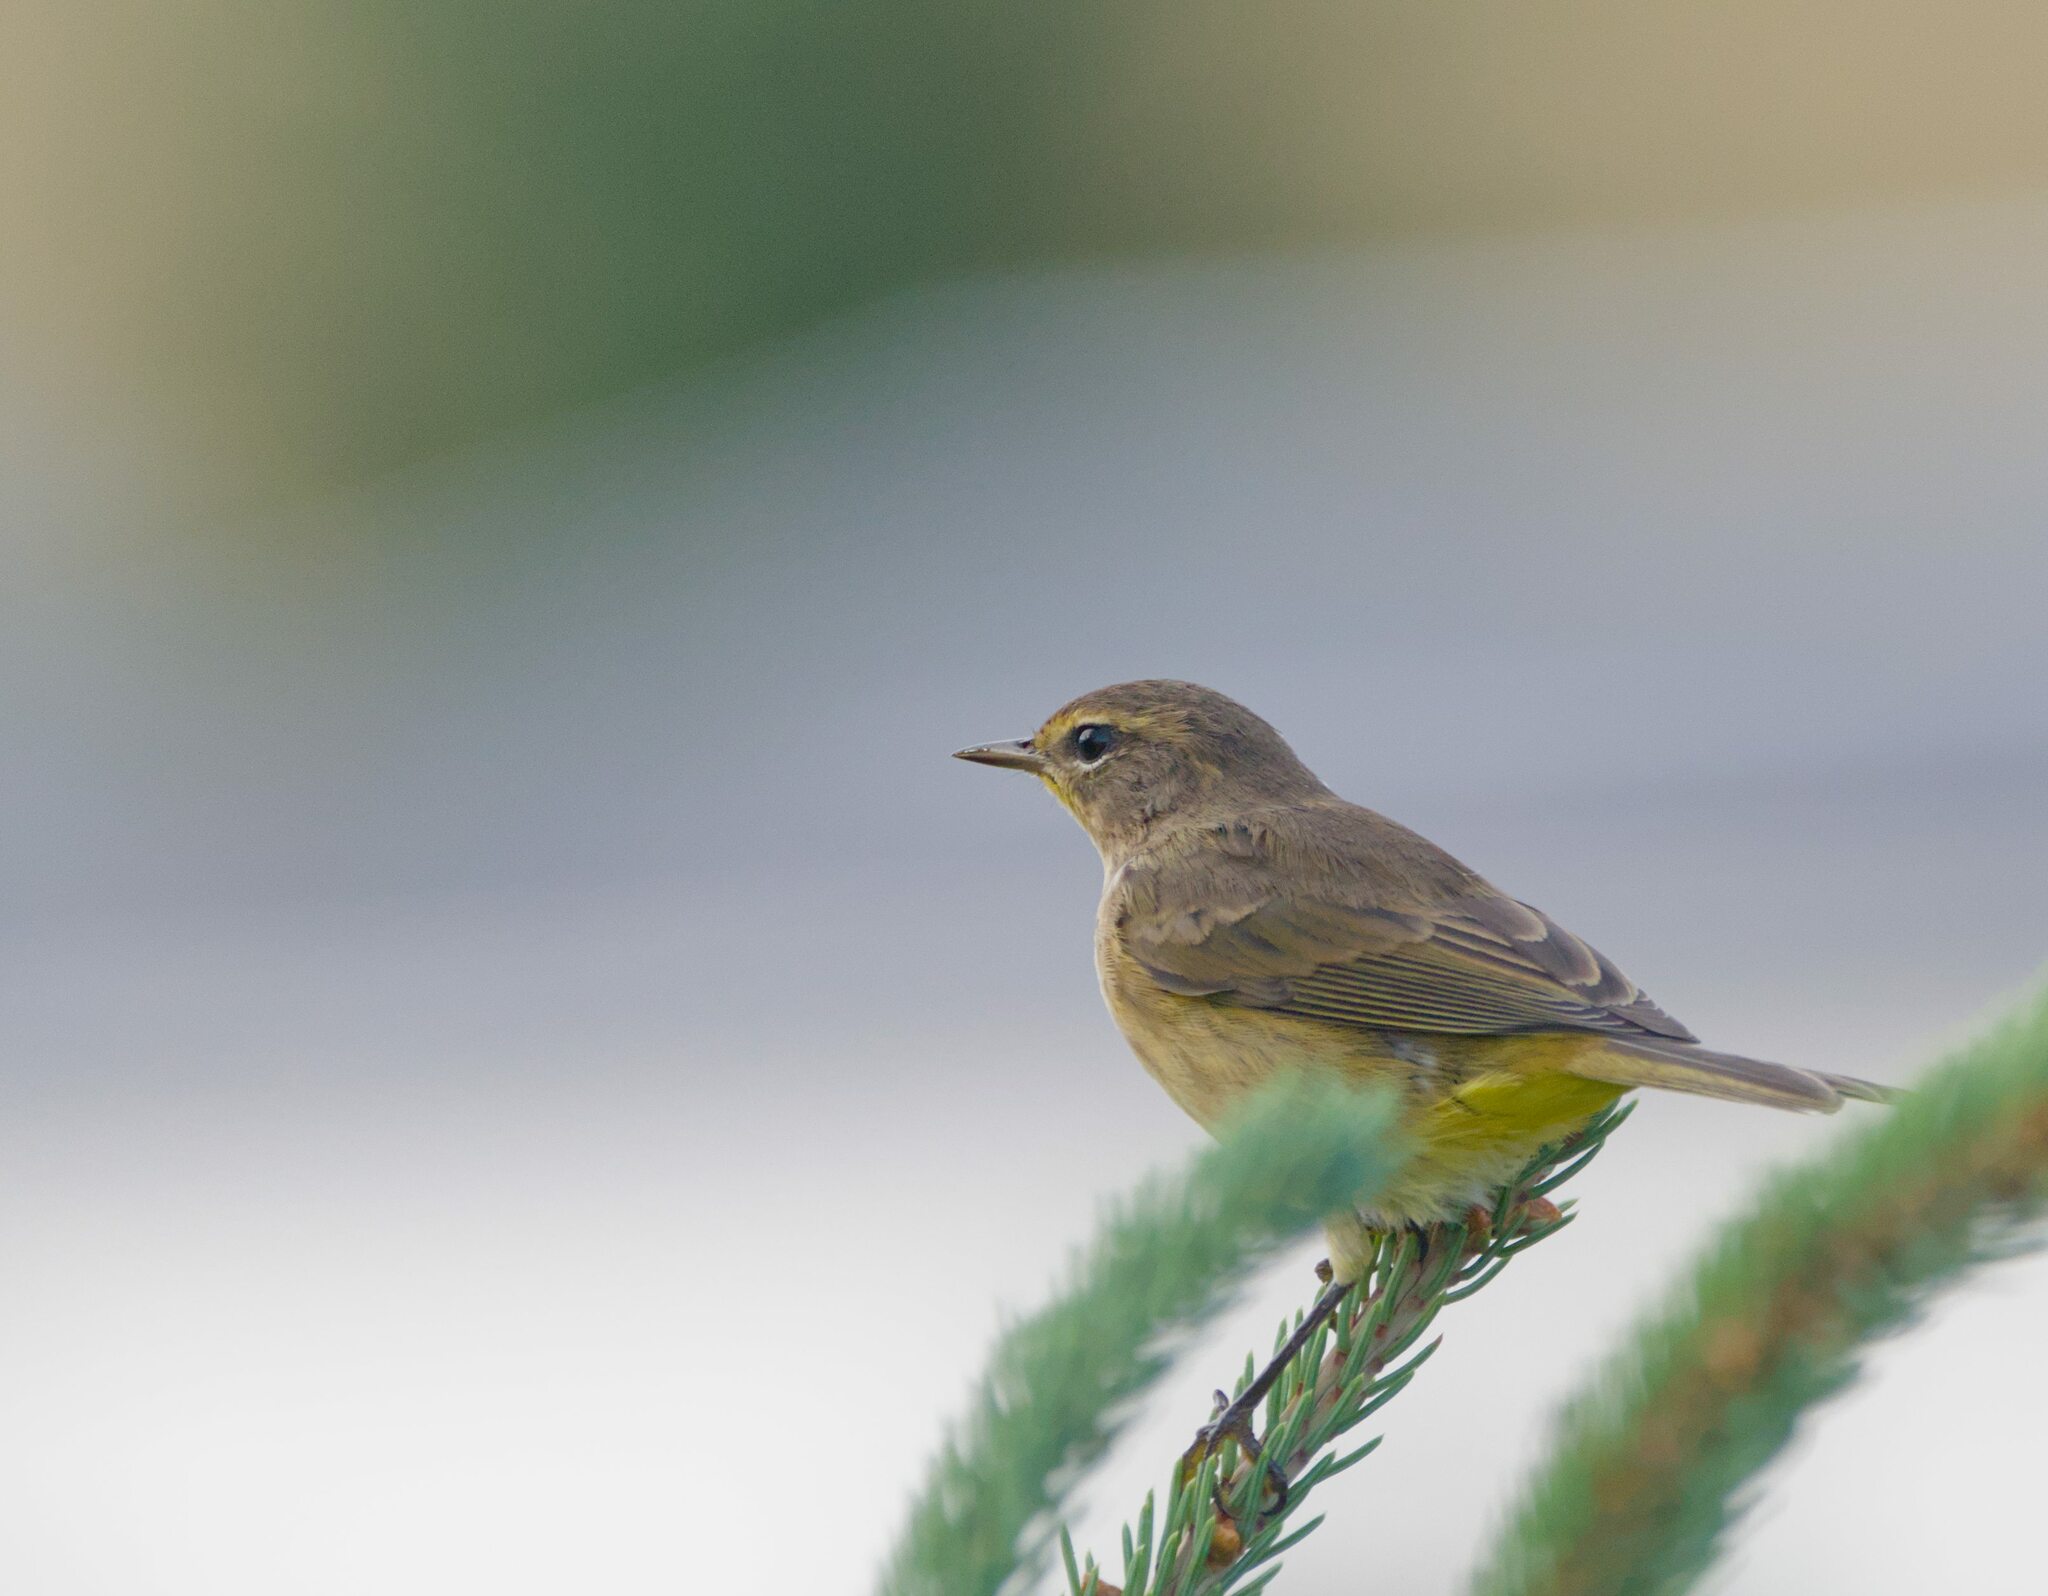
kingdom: Animalia
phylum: Chordata
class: Aves
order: Passeriformes
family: Parulidae
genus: Setophaga
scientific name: Setophaga palmarum
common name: Palm warbler
